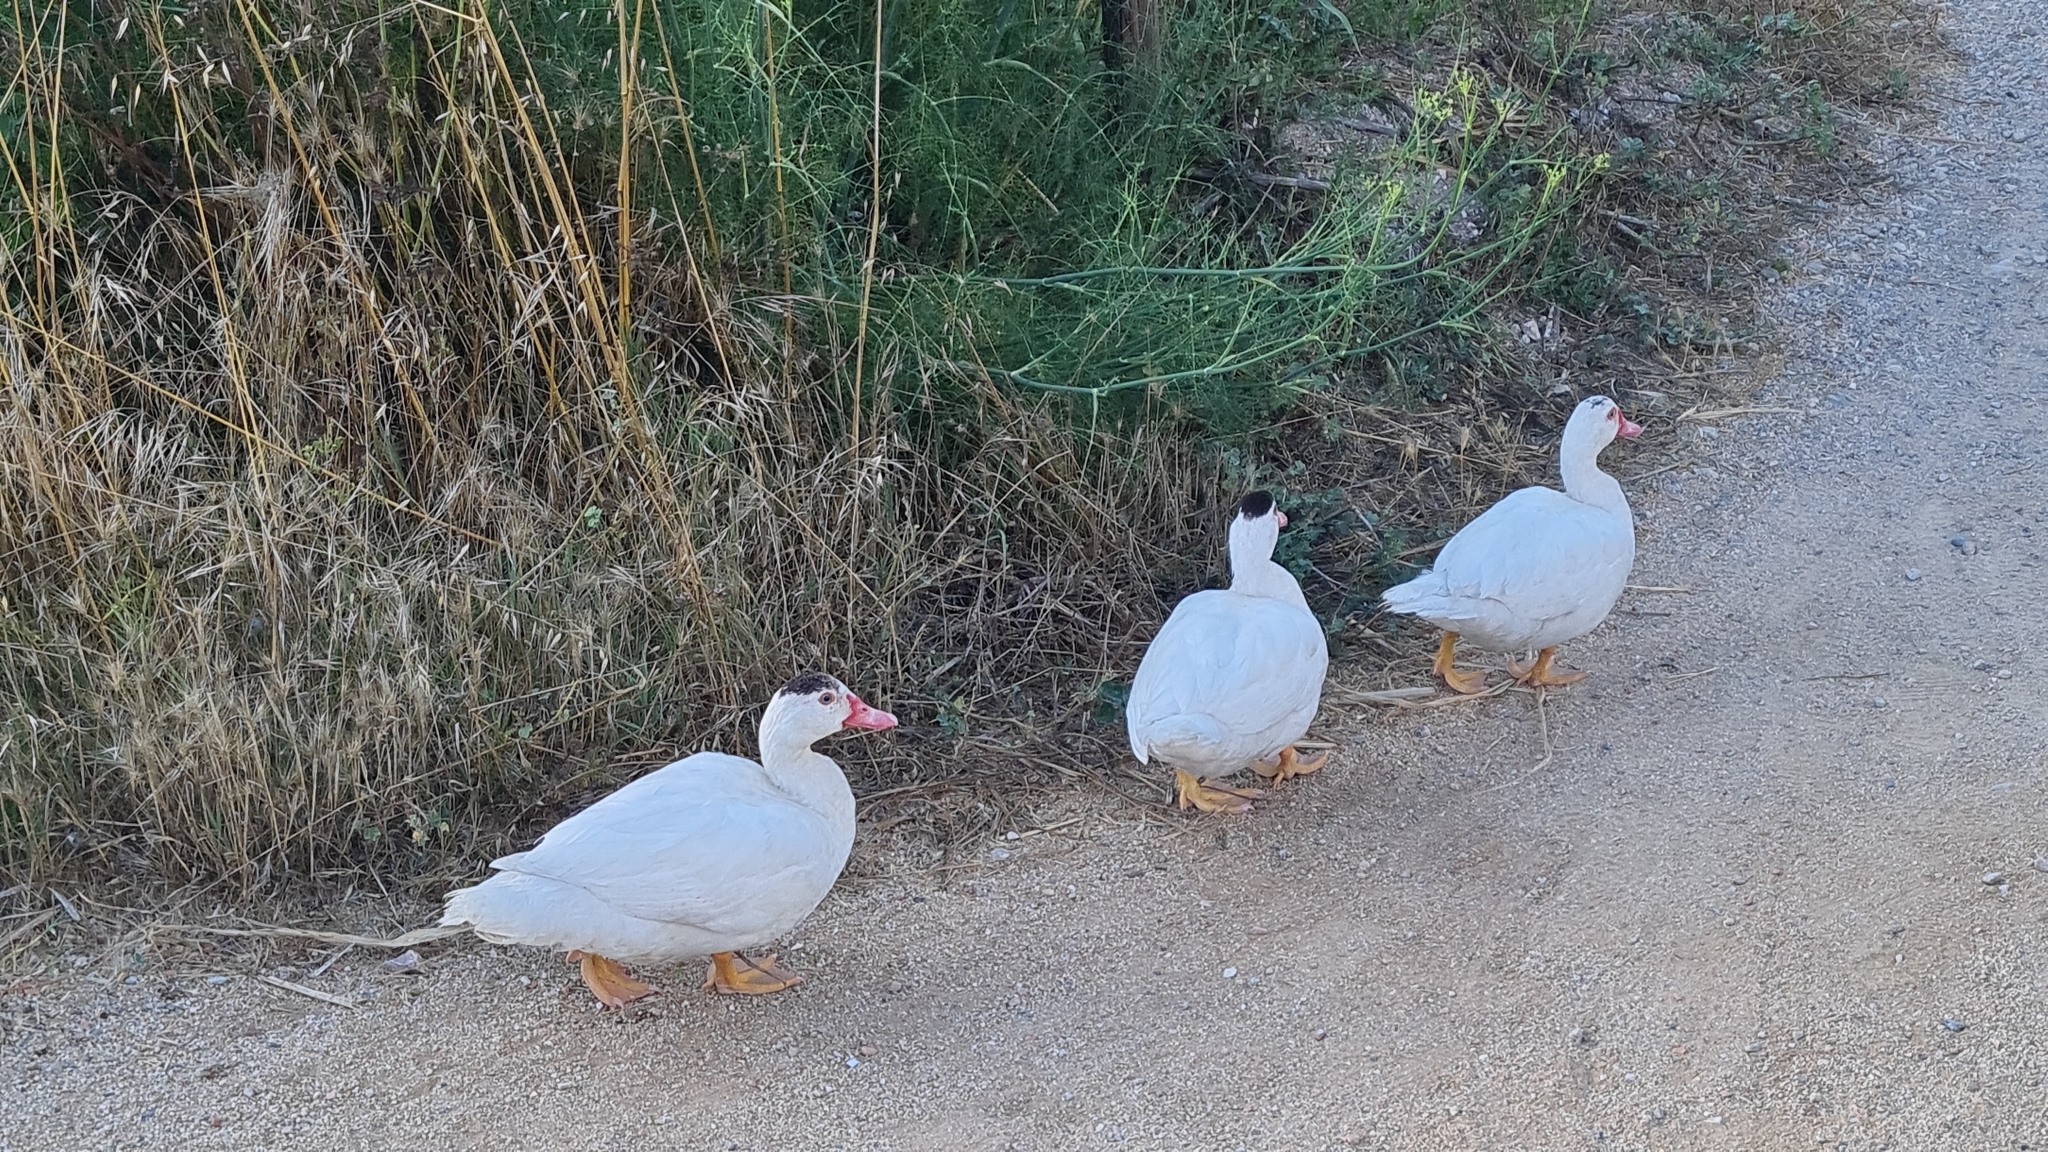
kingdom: Animalia
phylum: Chordata
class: Aves
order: Anseriformes
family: Anatidae
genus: Cairina
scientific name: Cairina moschata
